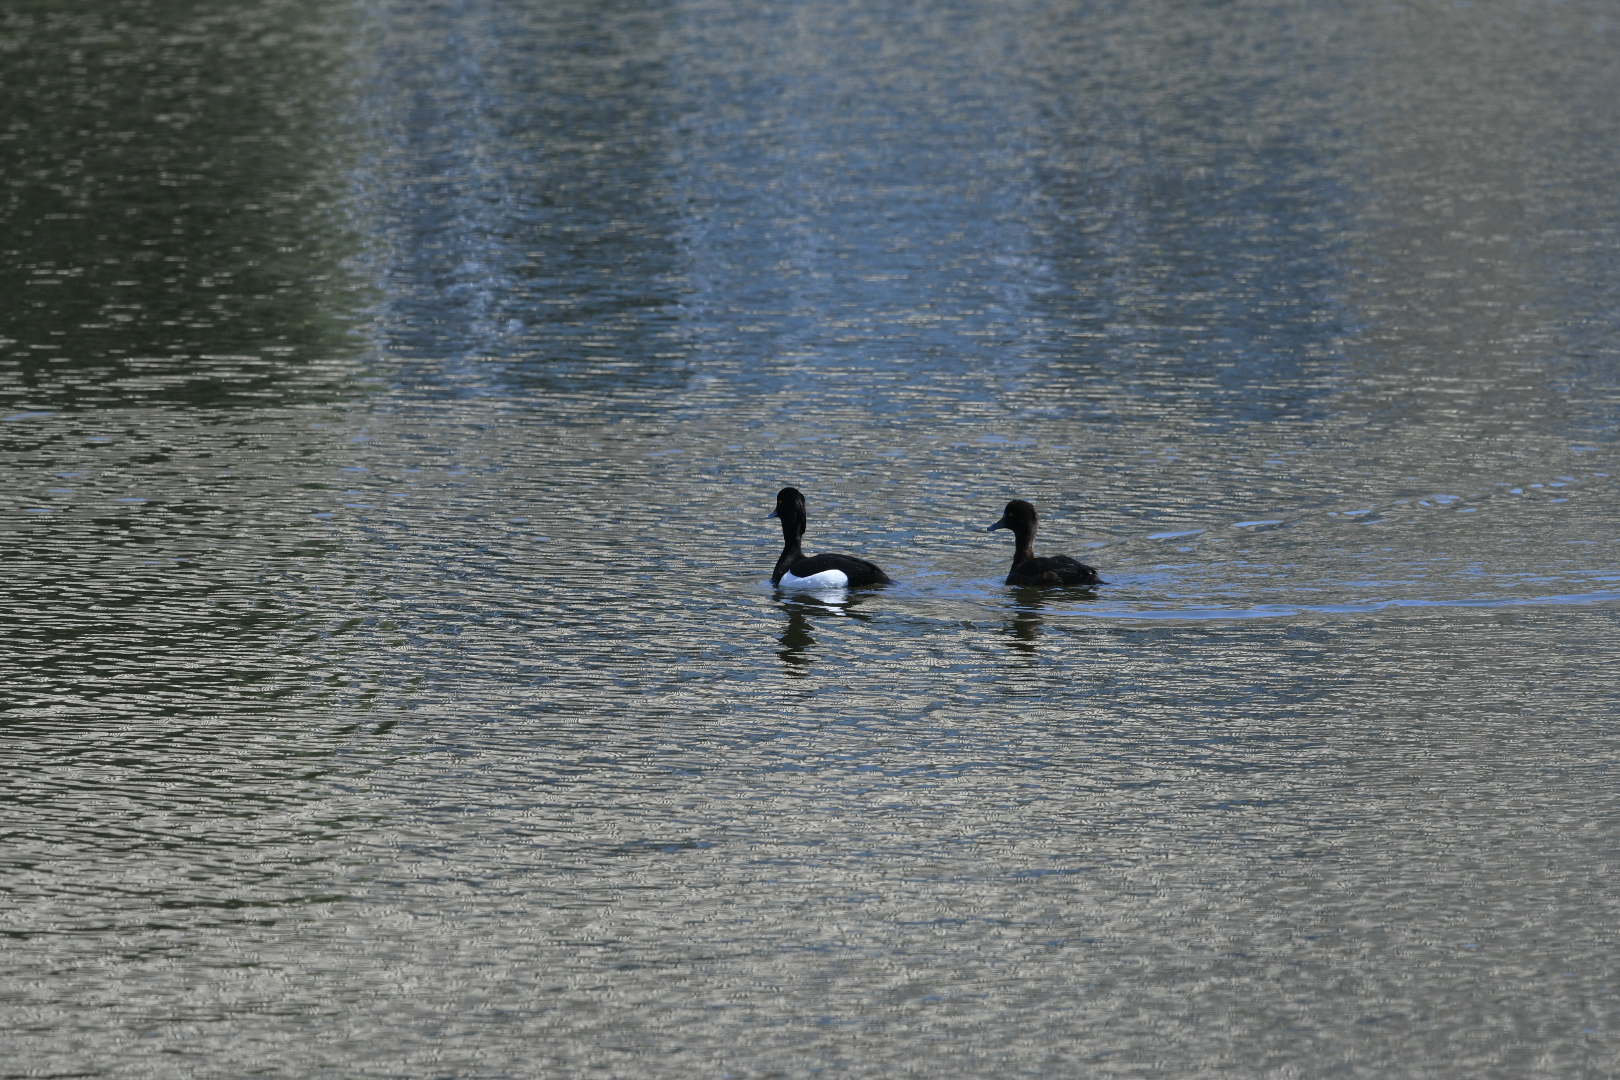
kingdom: Animalia
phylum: Chordata
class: Aves
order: Anseriformes
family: Anatidae
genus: Aythya
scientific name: Aythya fuligula
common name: Tufted duck
